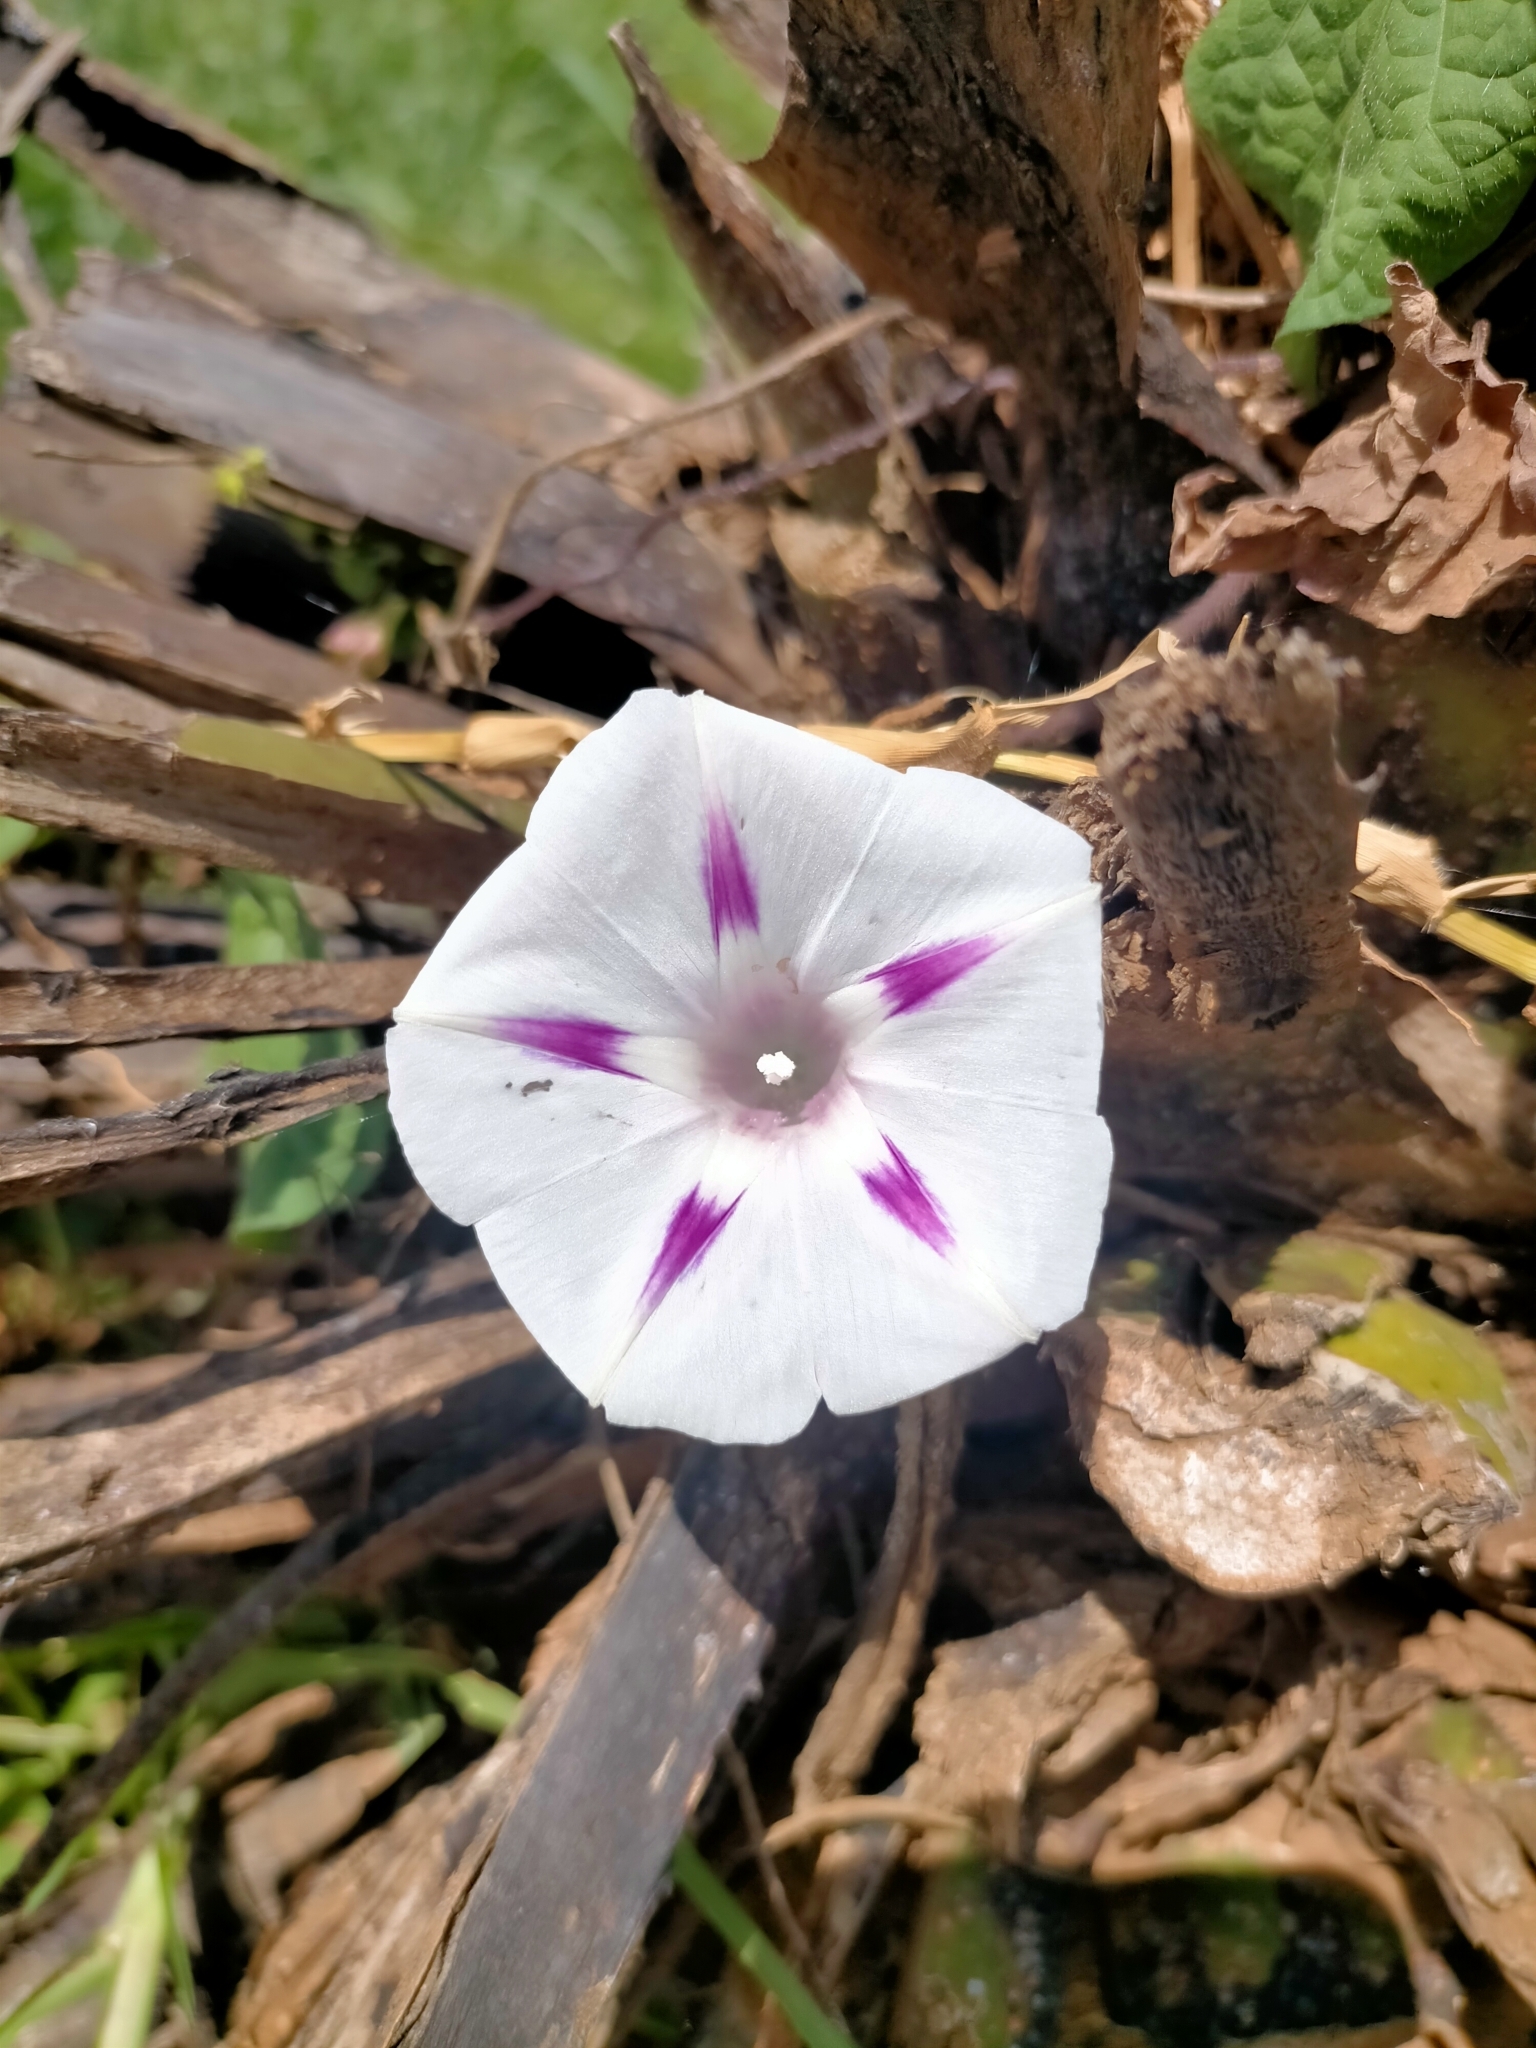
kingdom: Plantae
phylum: Tracheophyta
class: Magnoliopsida
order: Solanales
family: Convolvulaceae
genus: Ipomoea
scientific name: Ipomoea purpurea
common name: Common morning-glory
